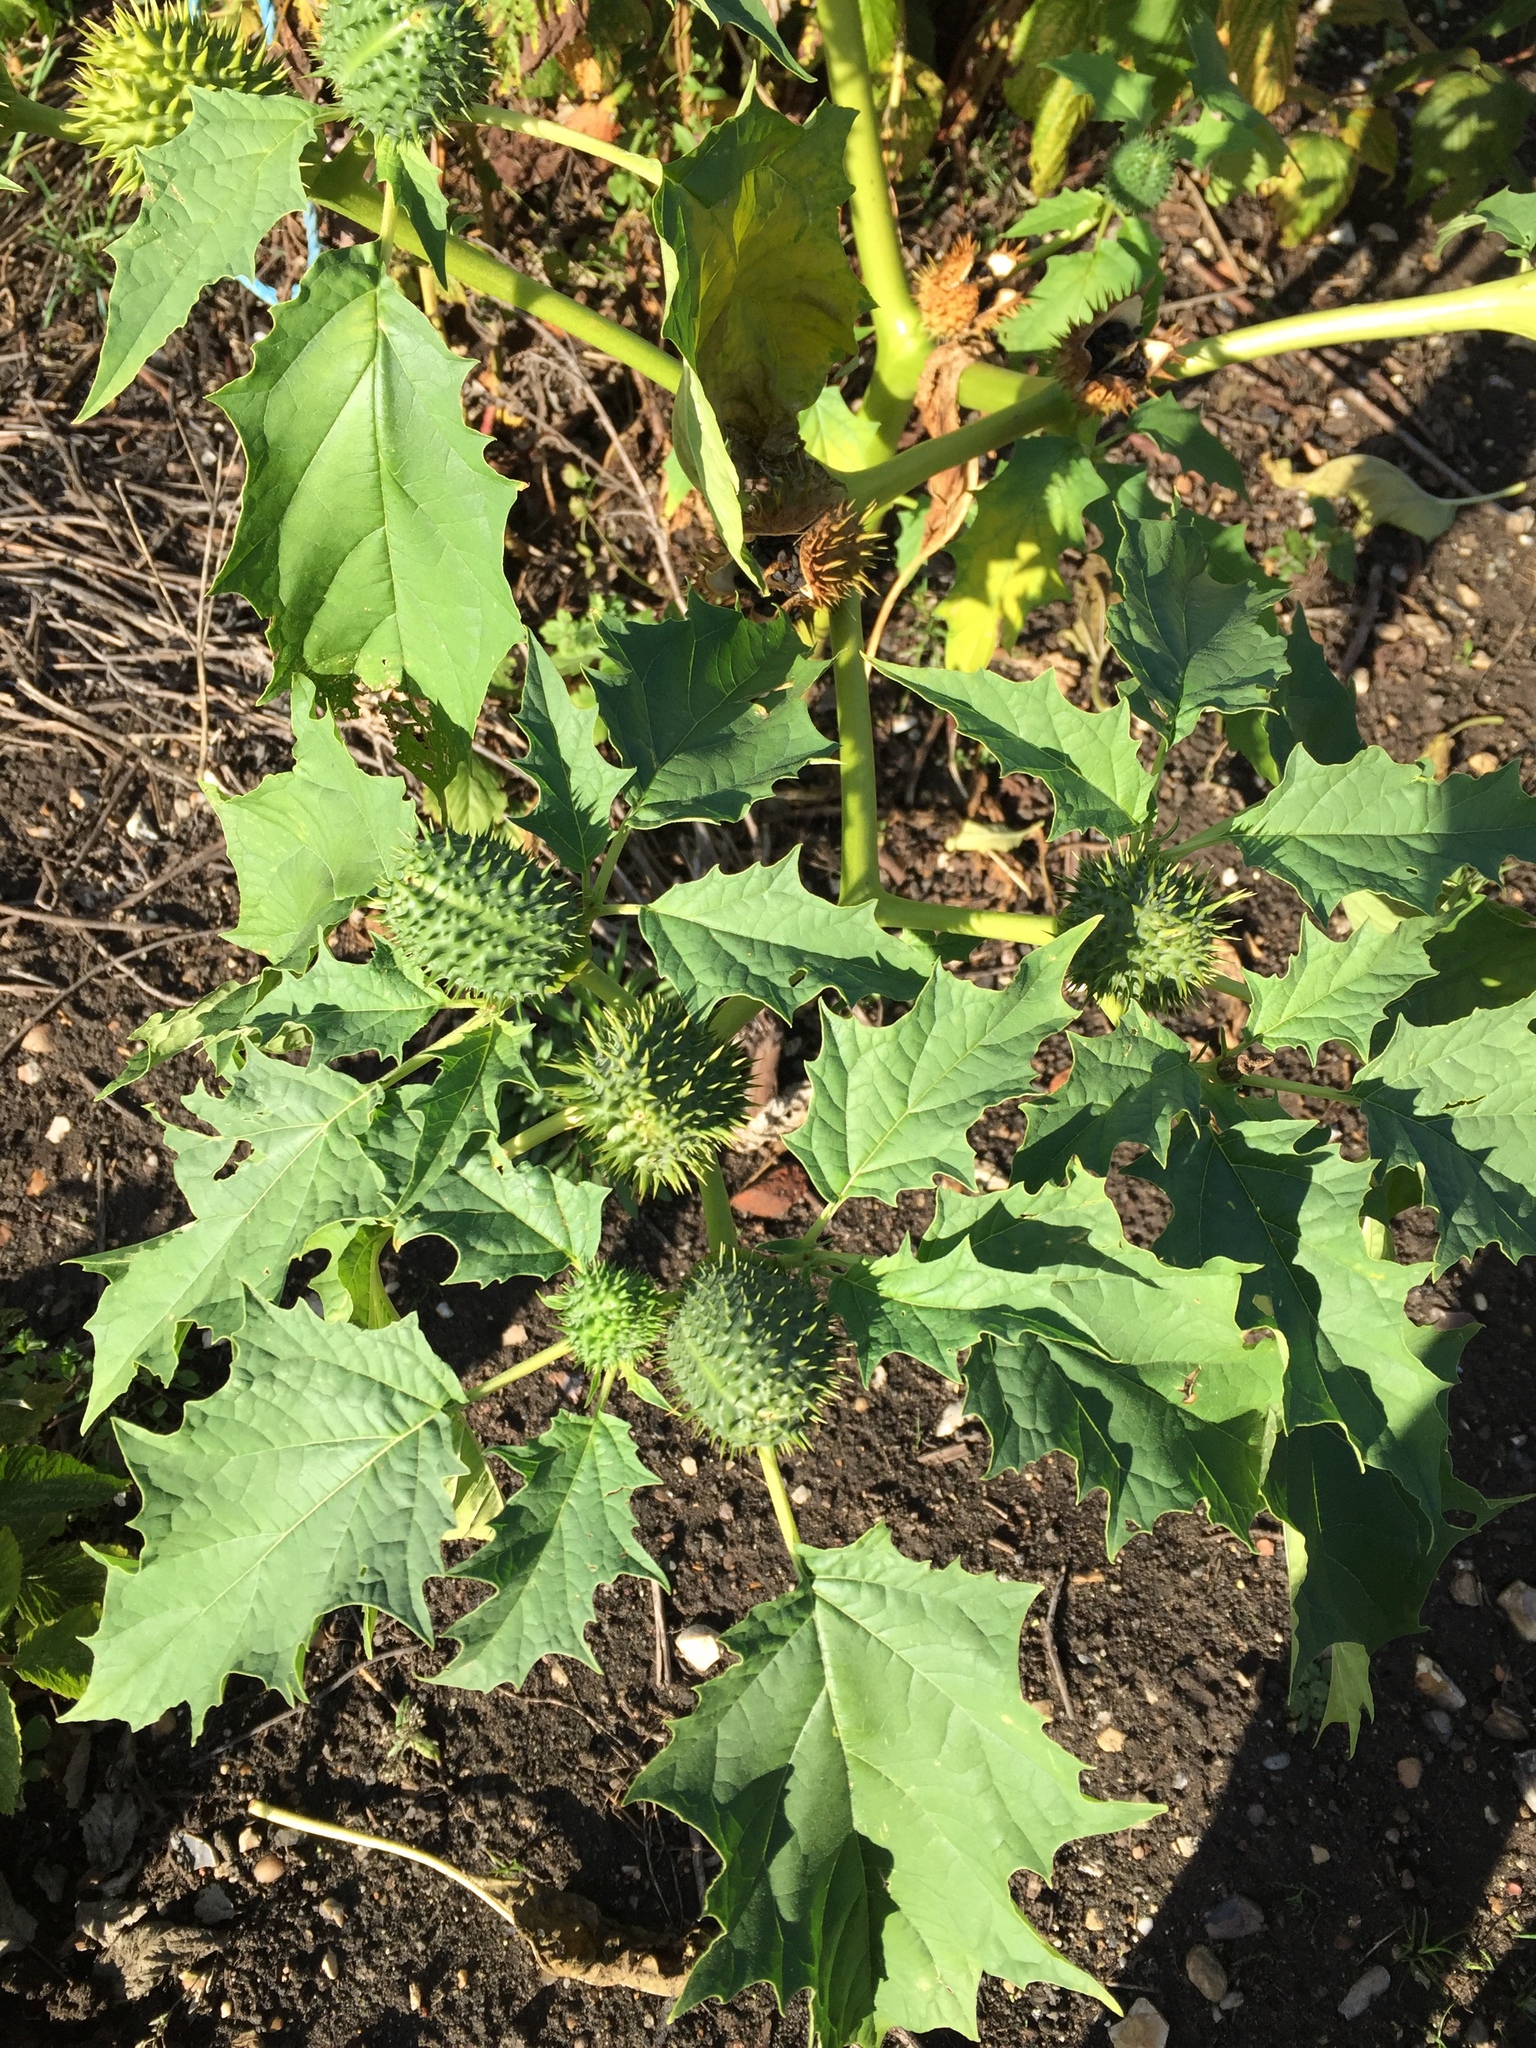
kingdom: Plantae
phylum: Tracheophyta
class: Magnoliopsida
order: Solanales
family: Solanaceae
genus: Datura
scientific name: Datura stramonium
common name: Thorn-apple
